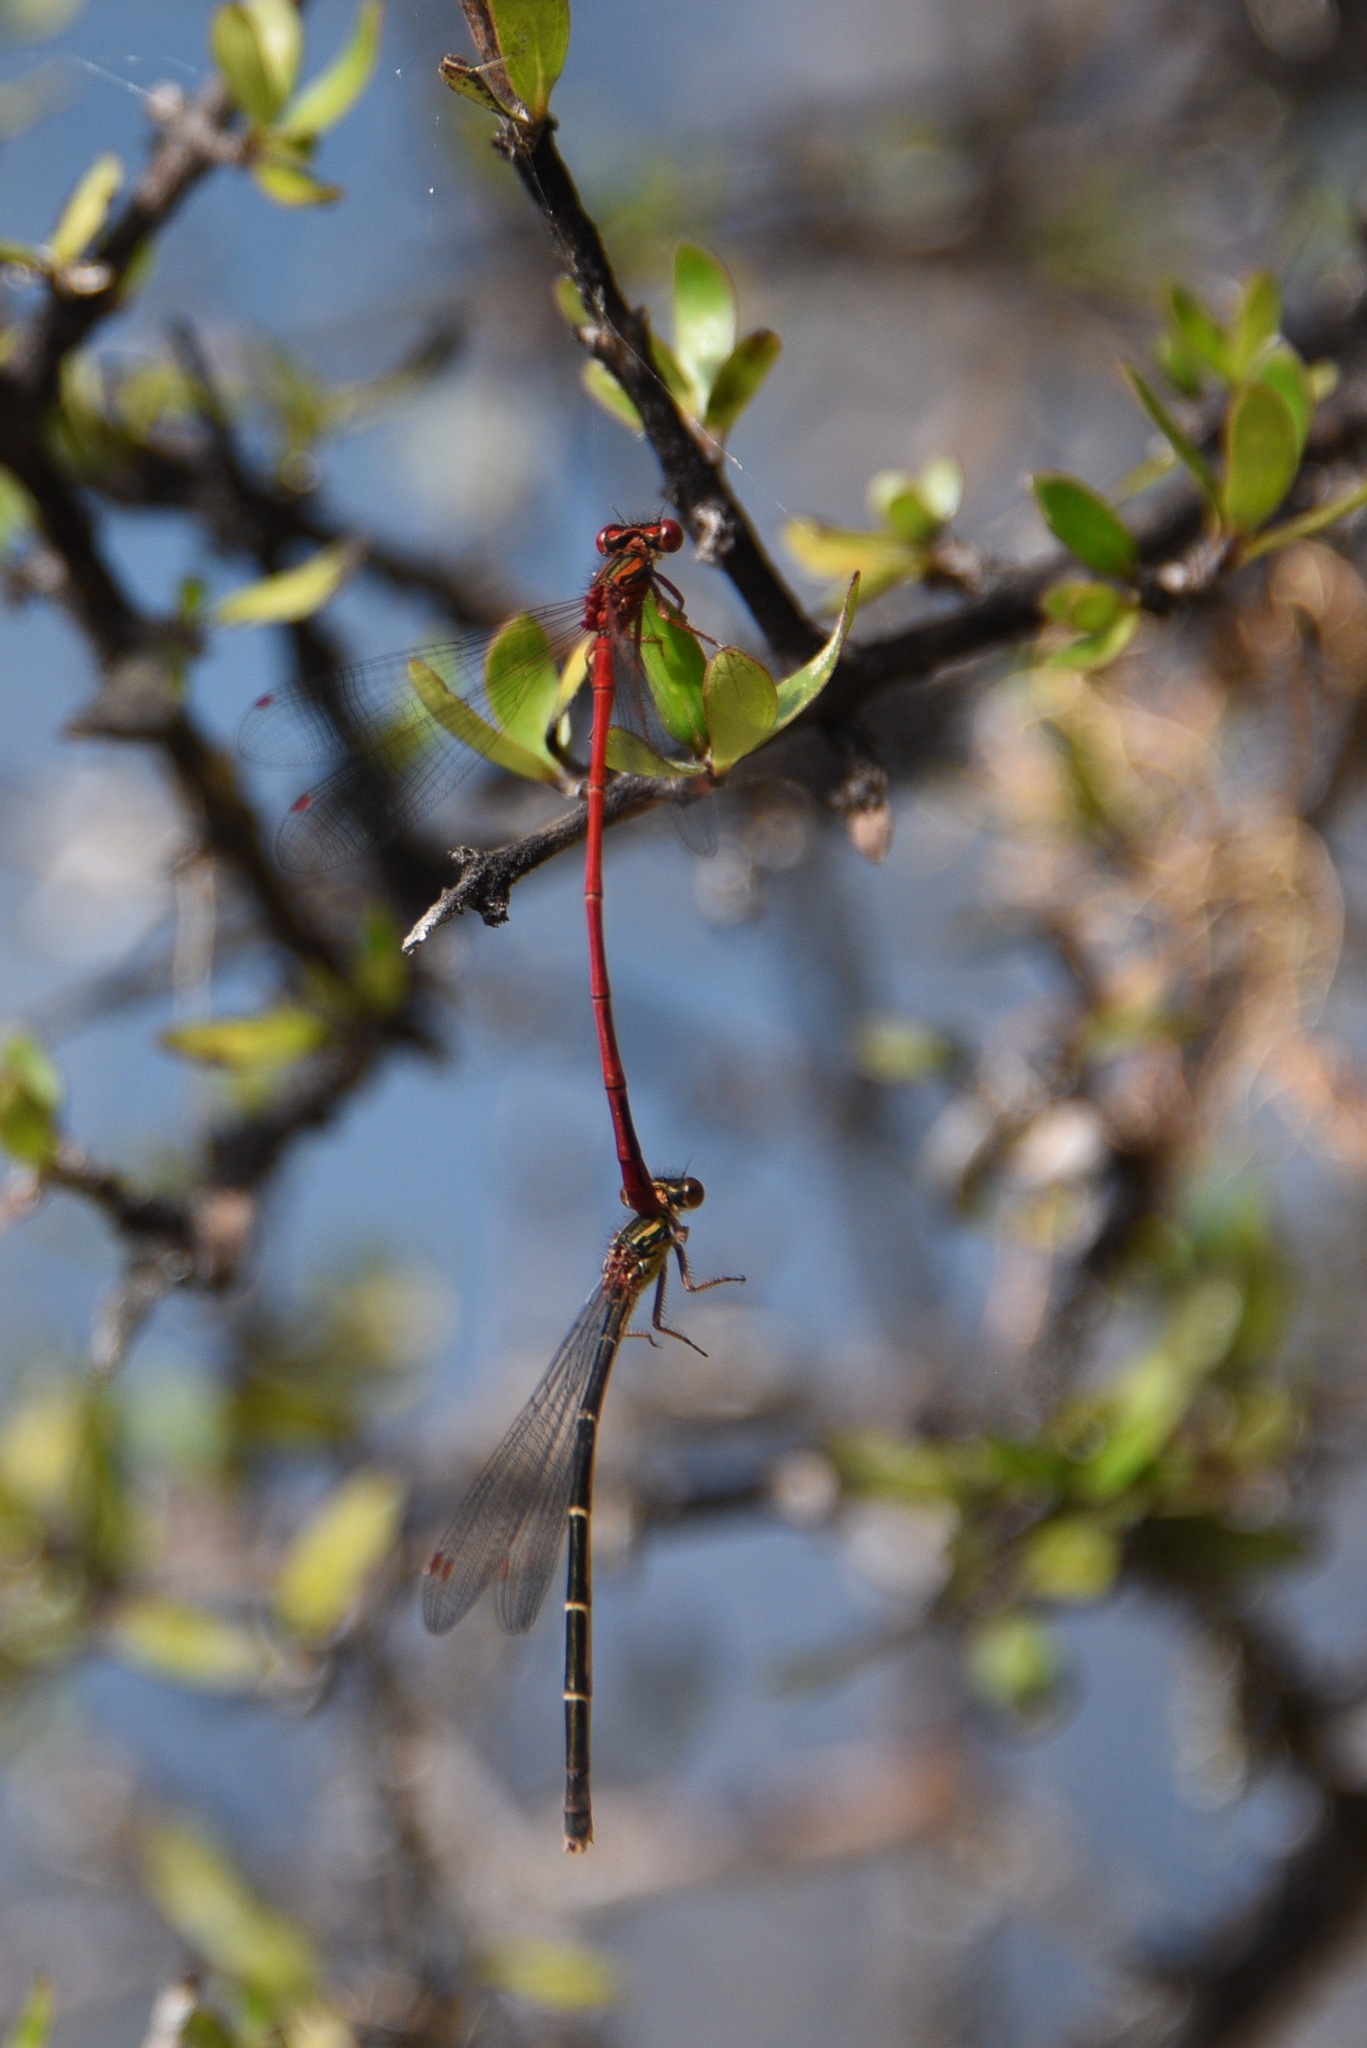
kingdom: Animalia
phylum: Arthropoda
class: Insecta
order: Odonata
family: Coenagrionidae
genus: Xanthocnemis
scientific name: Xanthocnemis zealandica
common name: Common redcoat damselfly
